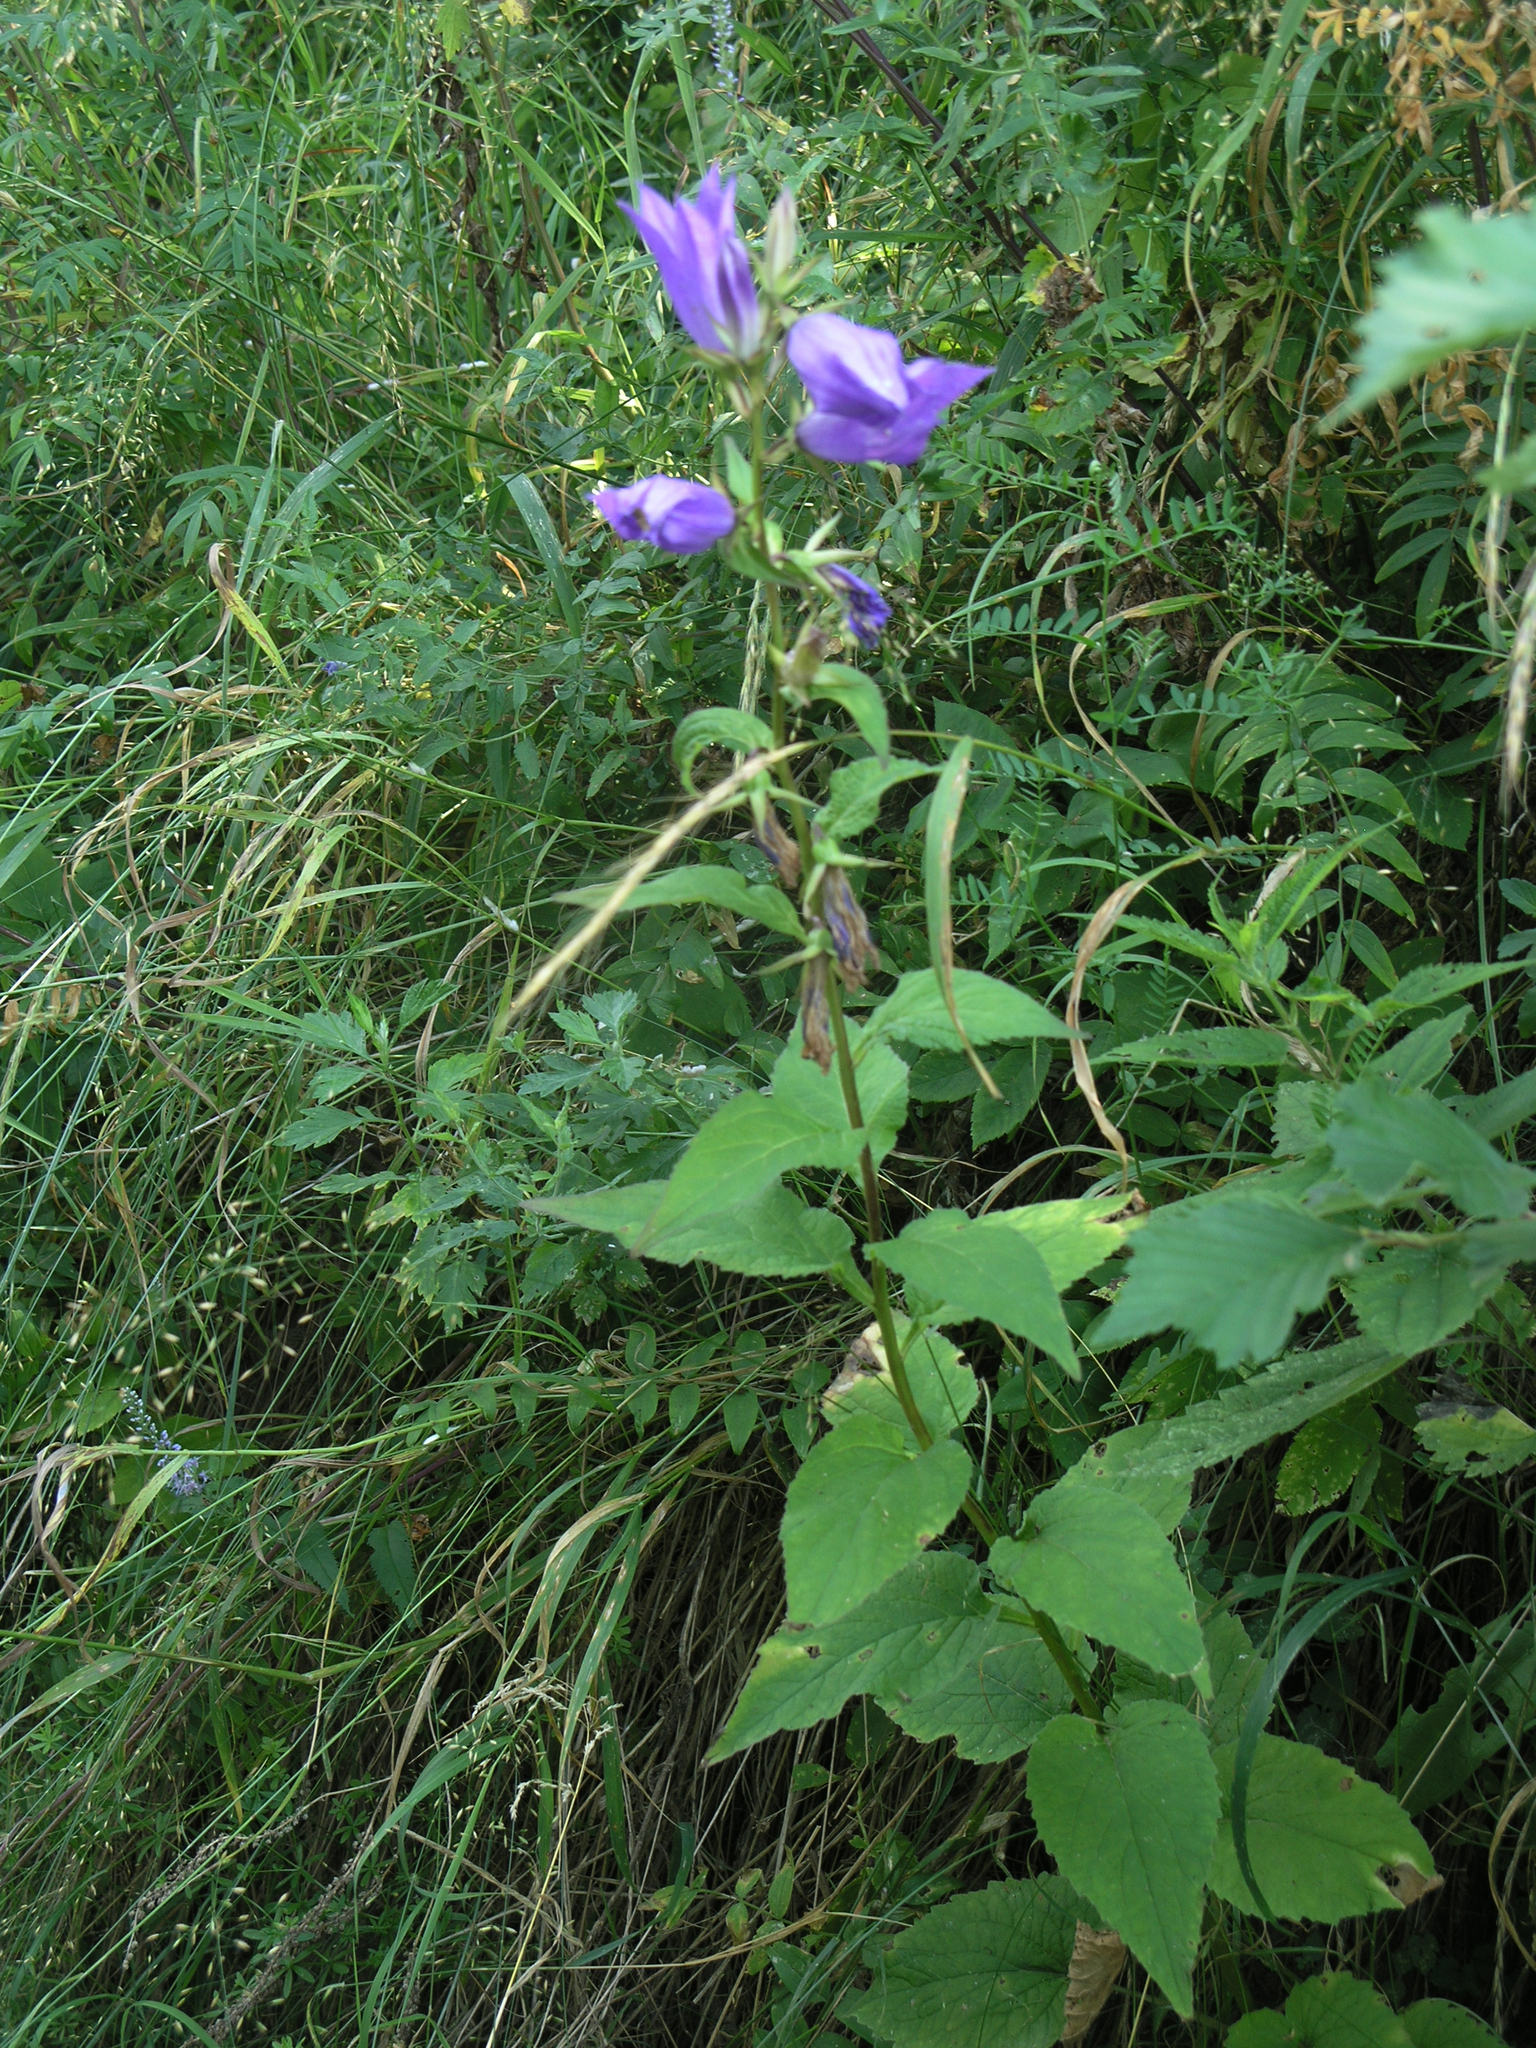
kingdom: Plantae
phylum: Tracheophyta
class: Magnoliopsida
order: Asterales
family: Campanulaceae
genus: Campanula
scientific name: Campanula latifolia
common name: Giant bellflower
